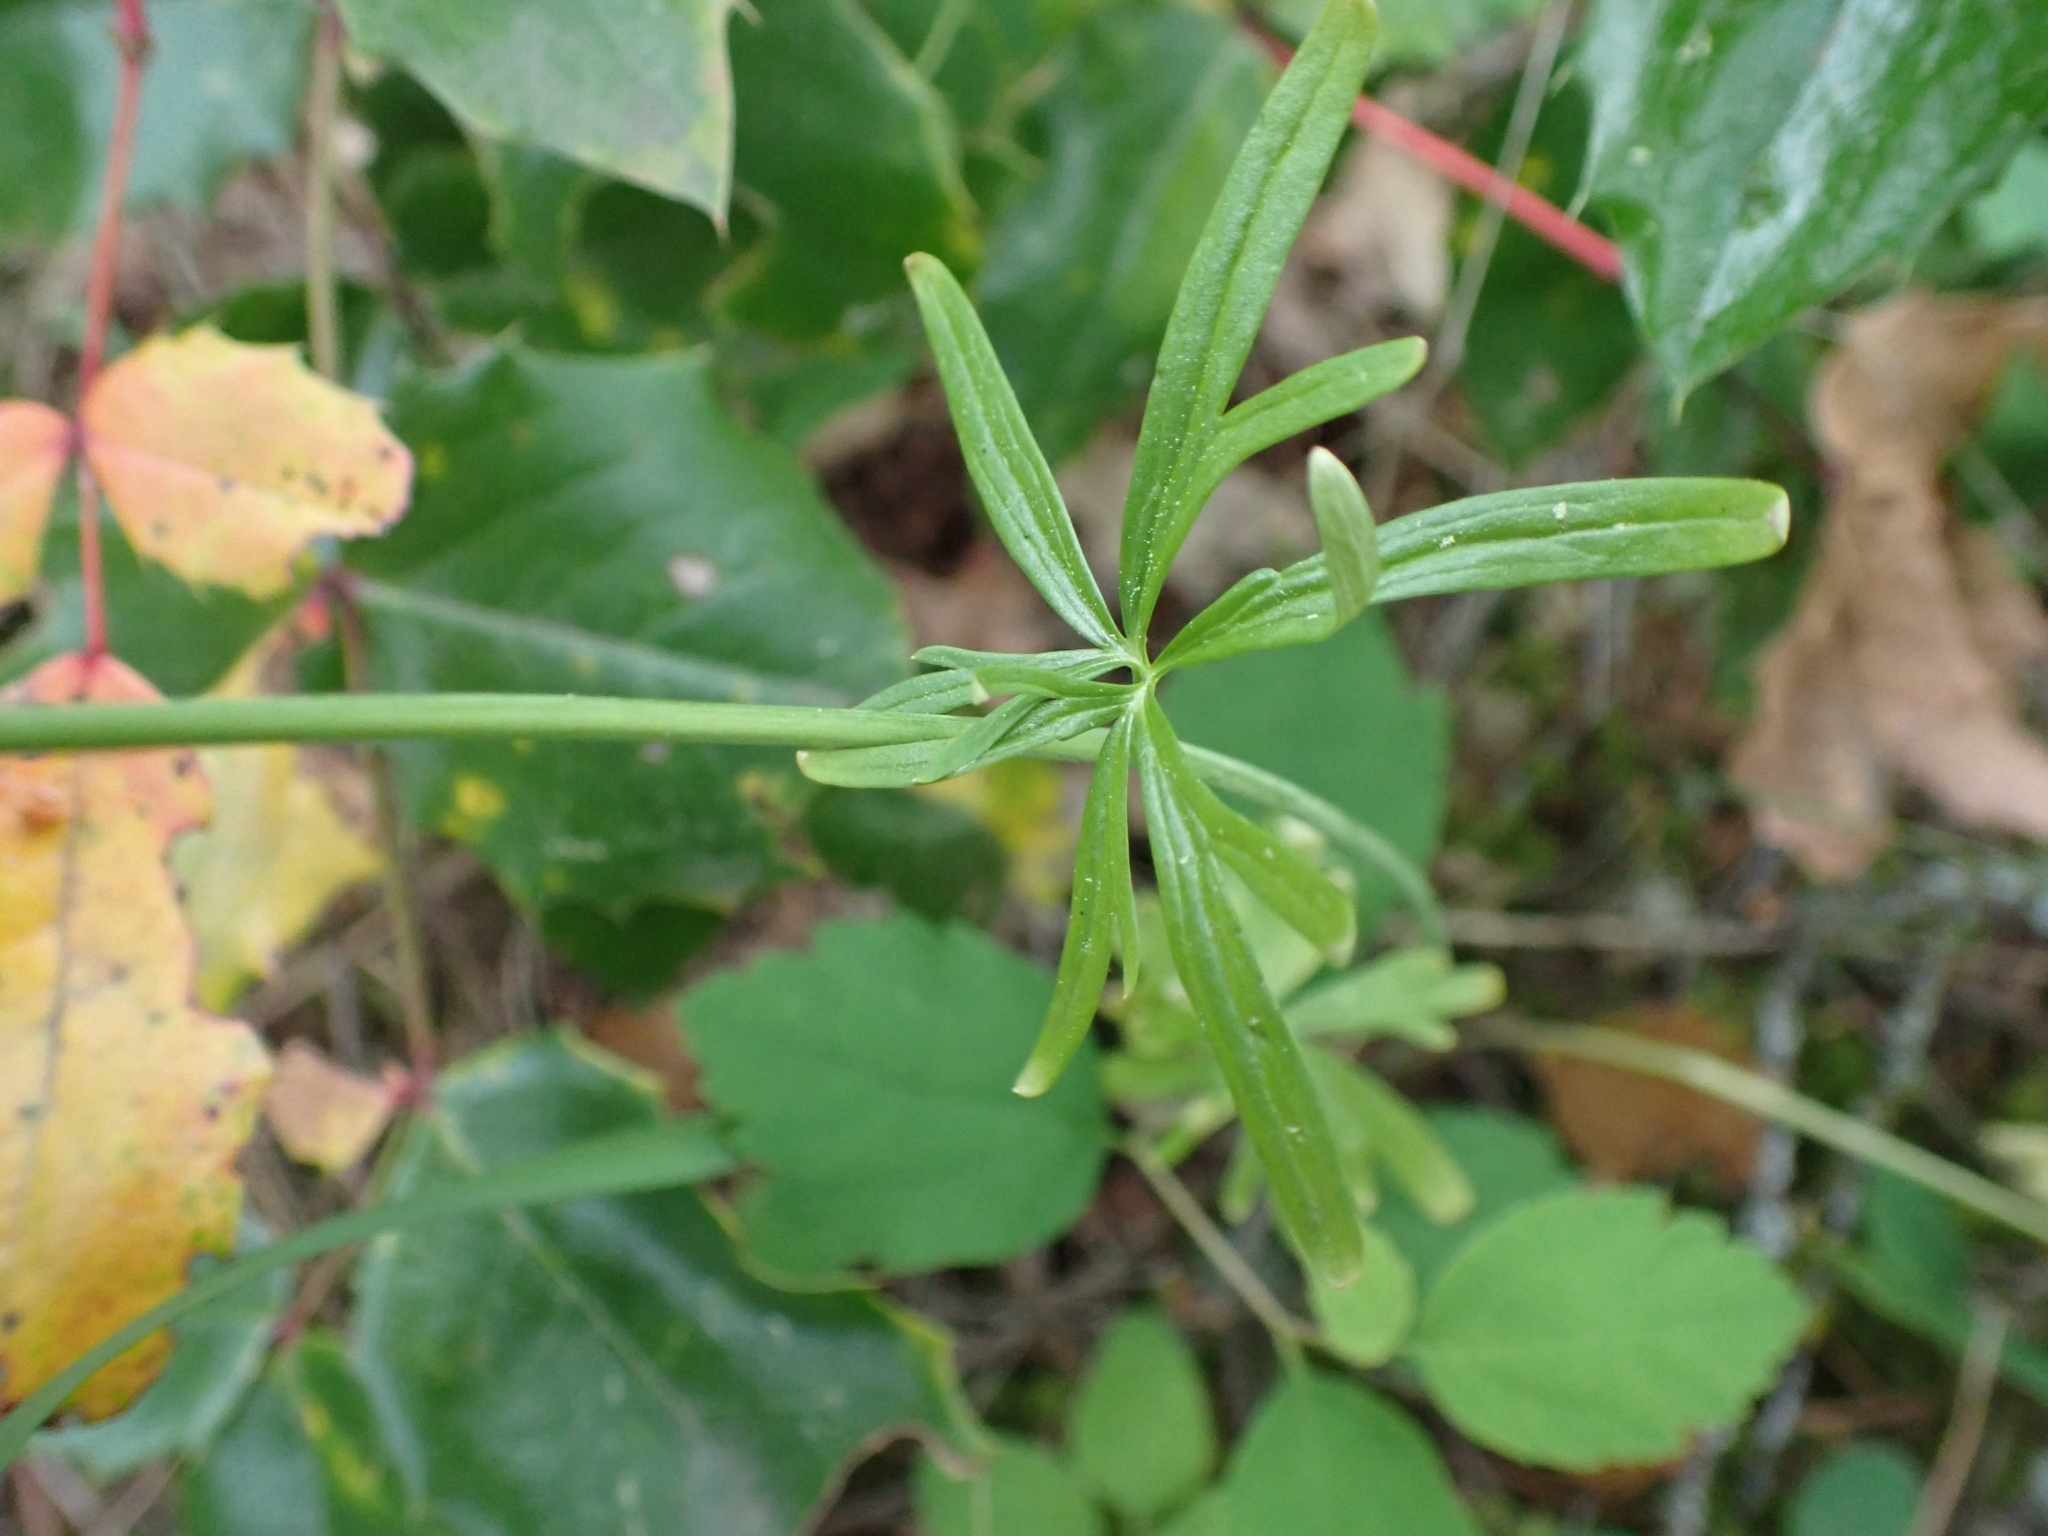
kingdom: Plantae
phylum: Tracheophyta
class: Magnoliopsida
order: Ranunculales
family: Ranunculaceae
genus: Delphinium
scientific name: Delphinium nuttallianum
